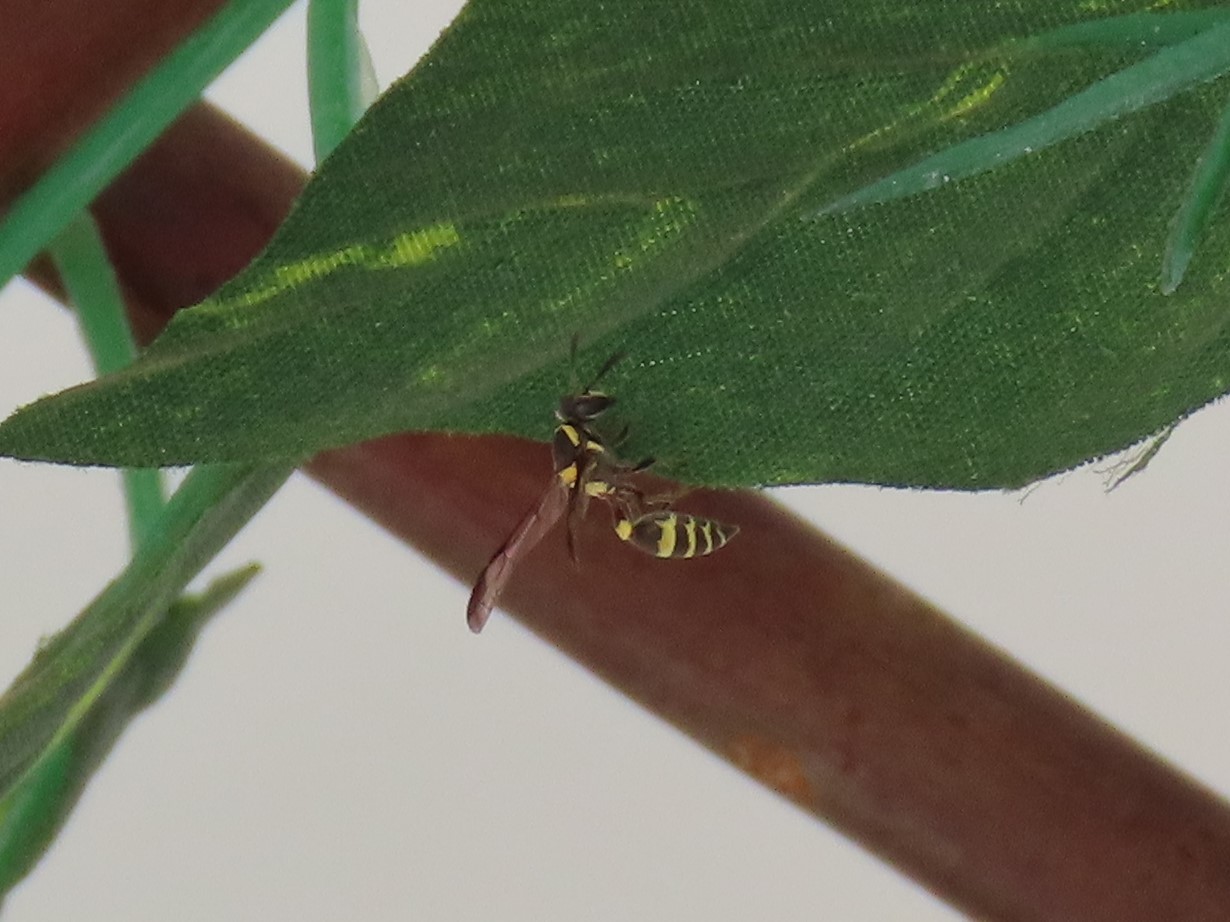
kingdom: Animalia
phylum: Arthropoda
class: Insecta
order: Hymenoptera
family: Eumenidae
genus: Polybia
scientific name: Polybia occidentalis
